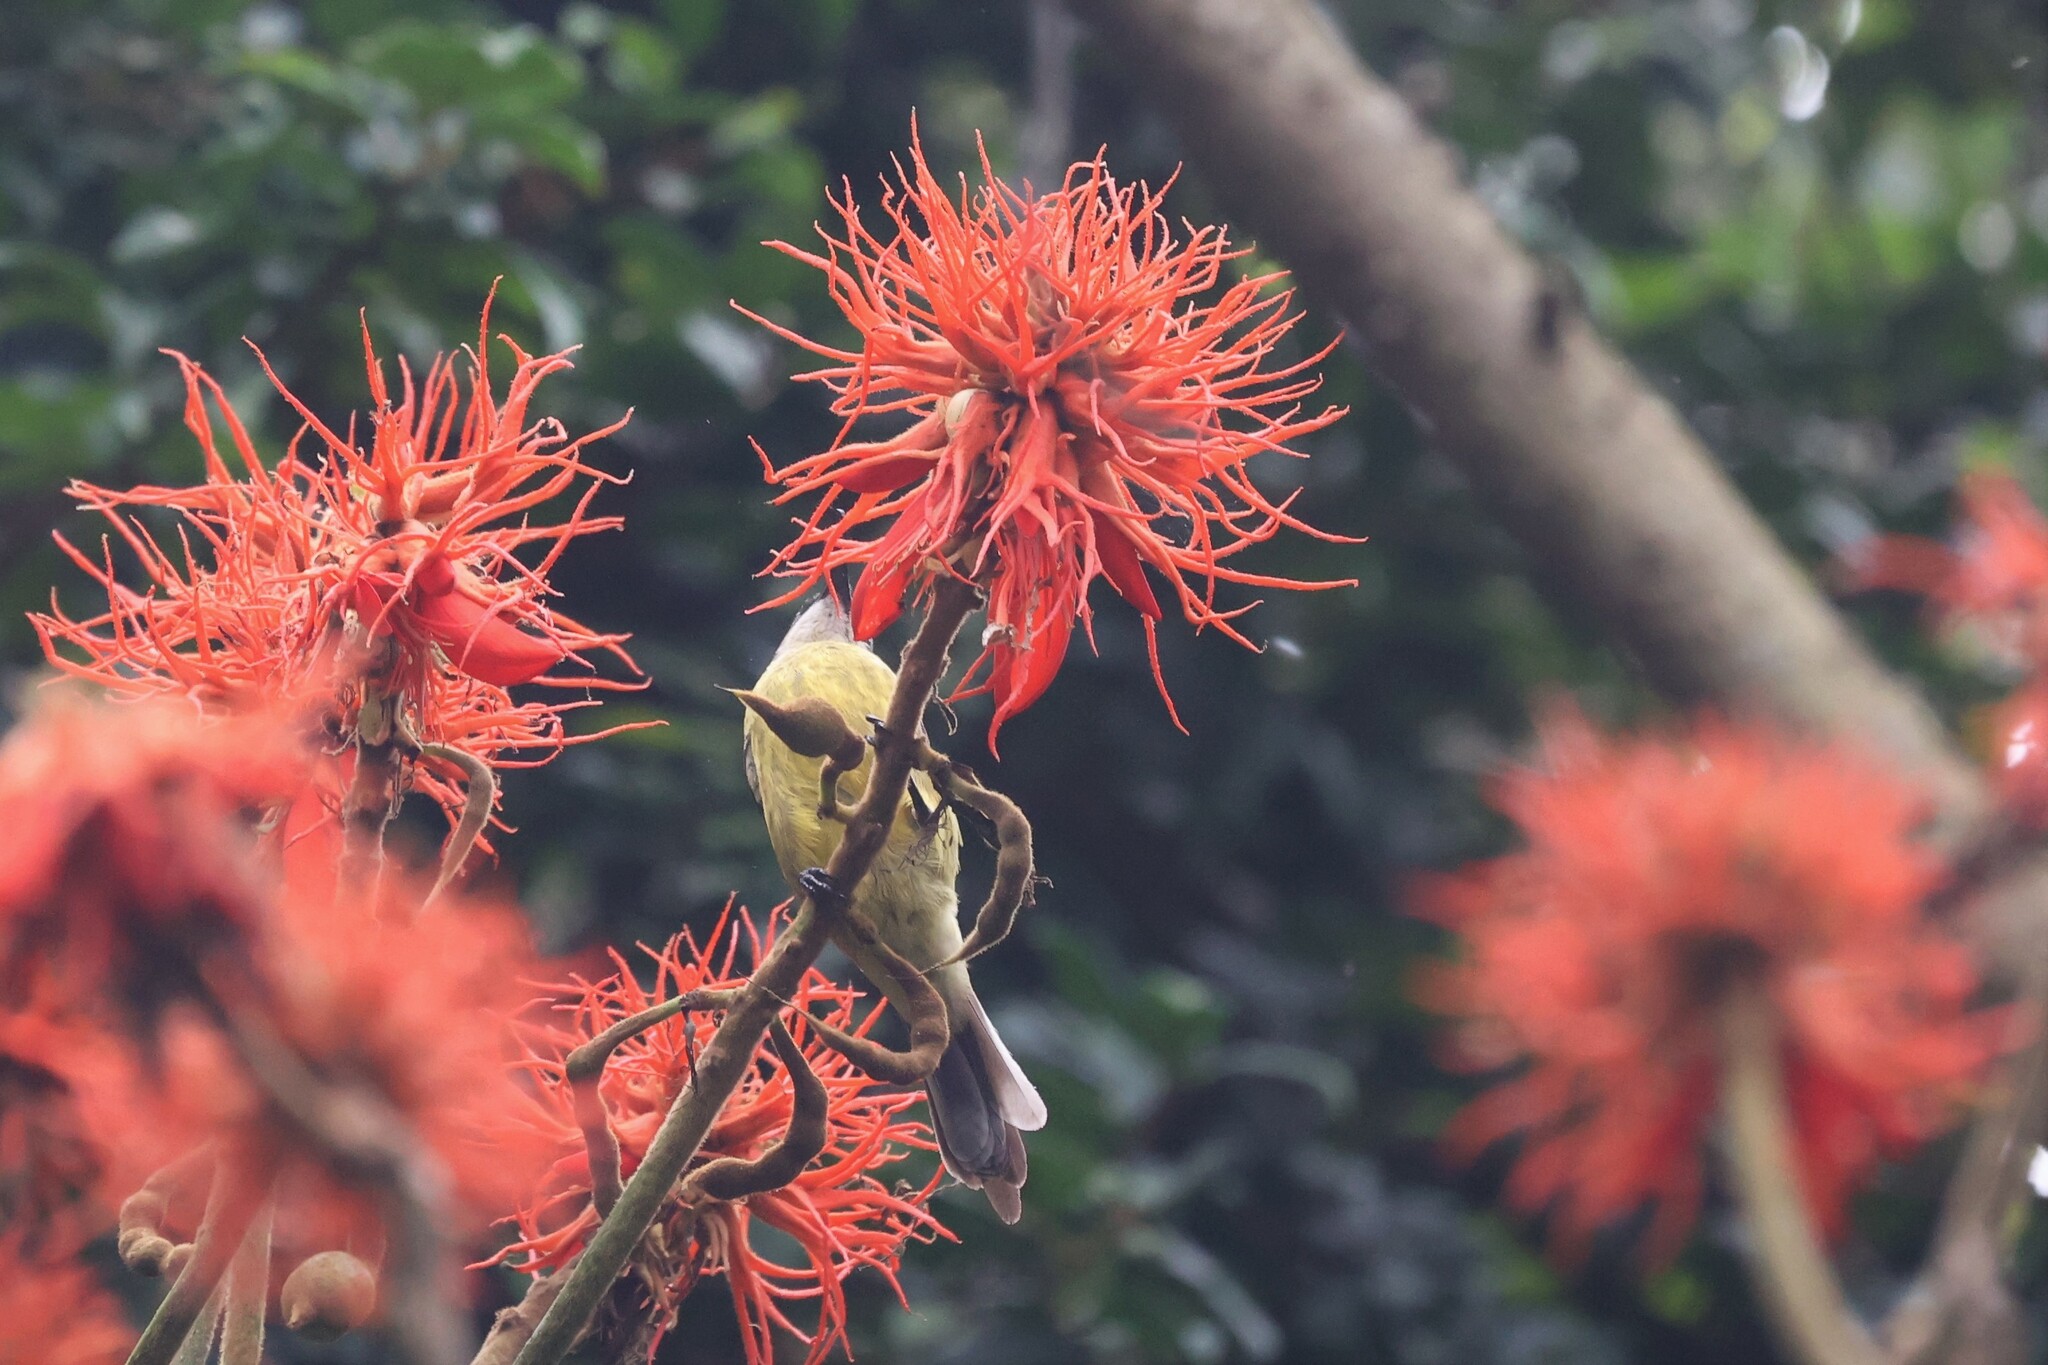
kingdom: Animalia
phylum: Chordata
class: Aves
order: Passeriformes
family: Nectariniidae
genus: Nectarinia
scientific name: Nectarinia kilimensis
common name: Bronzy sunbird
